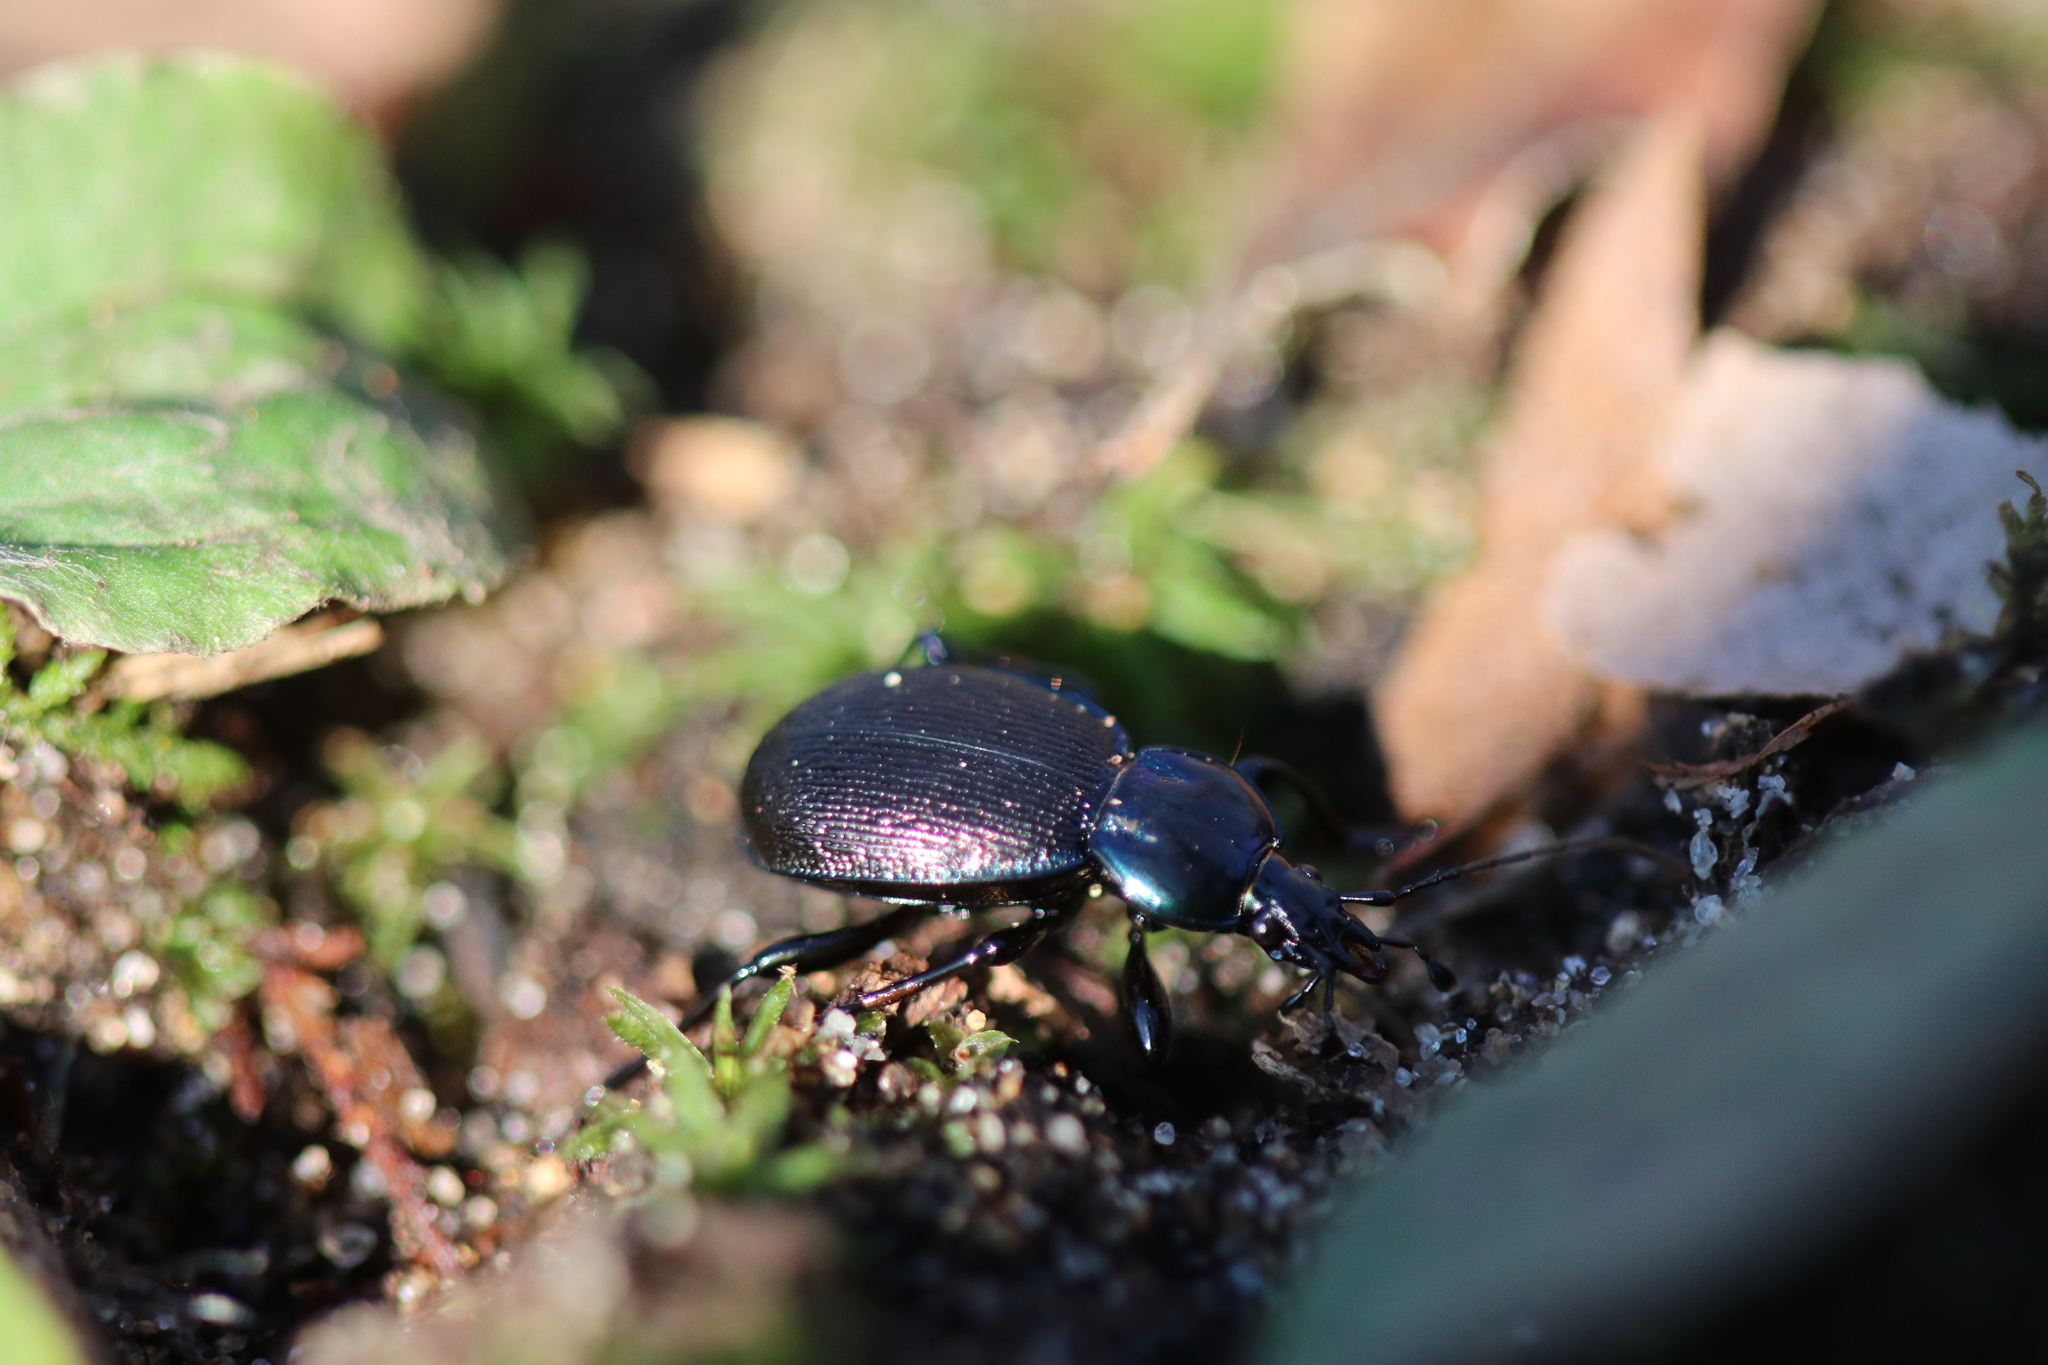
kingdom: Animalia
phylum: Arthropoda
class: Insecta
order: Coleoptera
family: Carabidae
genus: Sphaeroderus
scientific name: Sphaeroderus stenostomus
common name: Small snail-eating ground beetle
